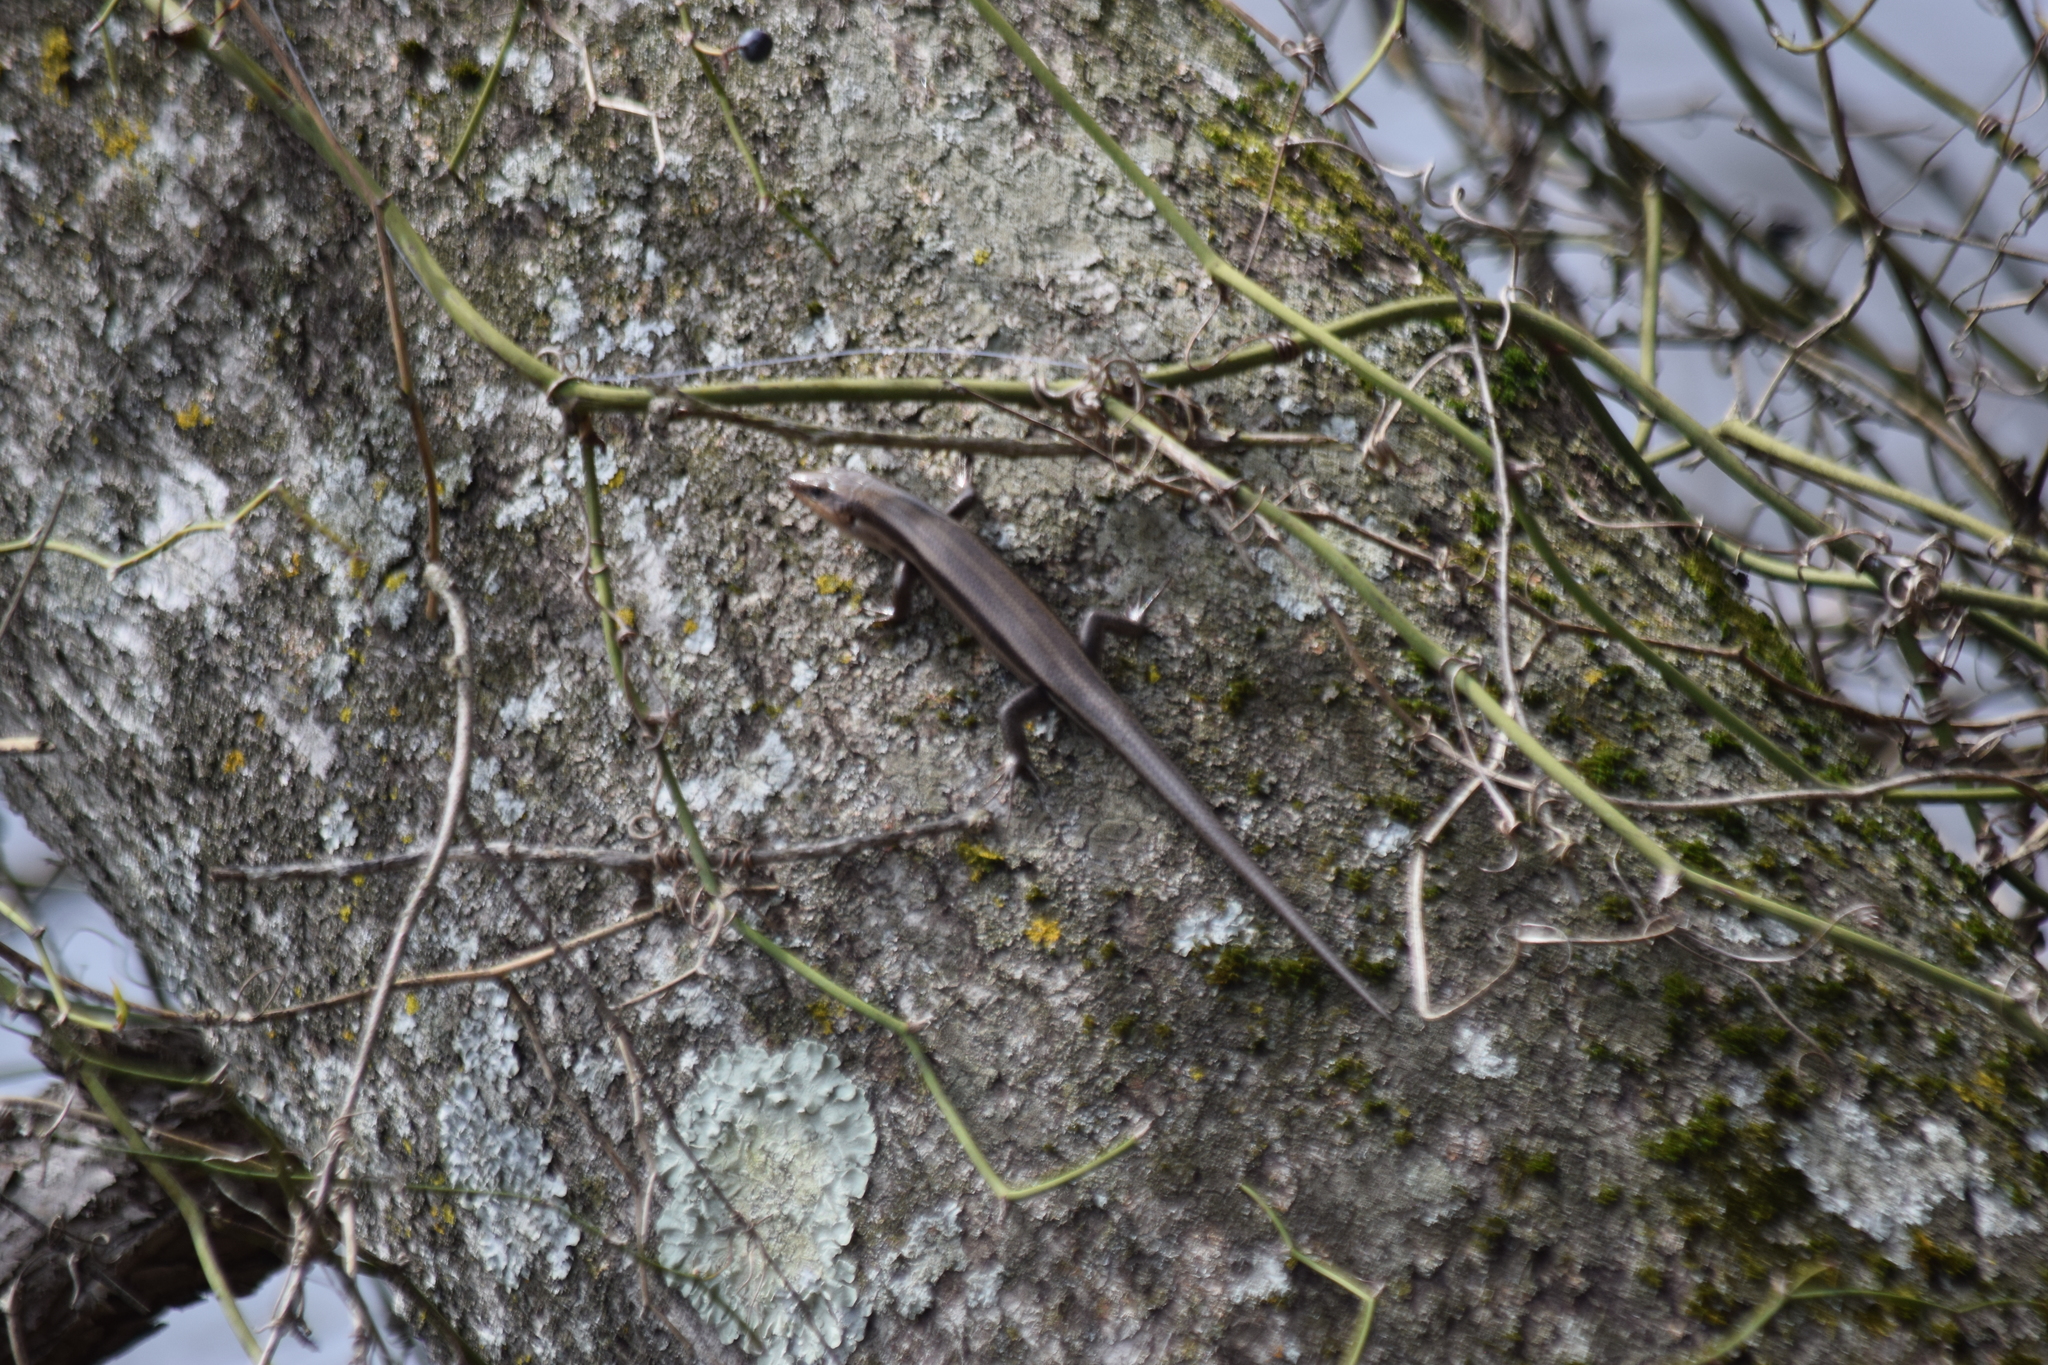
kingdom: Animalia
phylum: Chordata
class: Squamata
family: Scincidae
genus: Plestiodon
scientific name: Plestiodon fasciatus
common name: Five-lined skink
